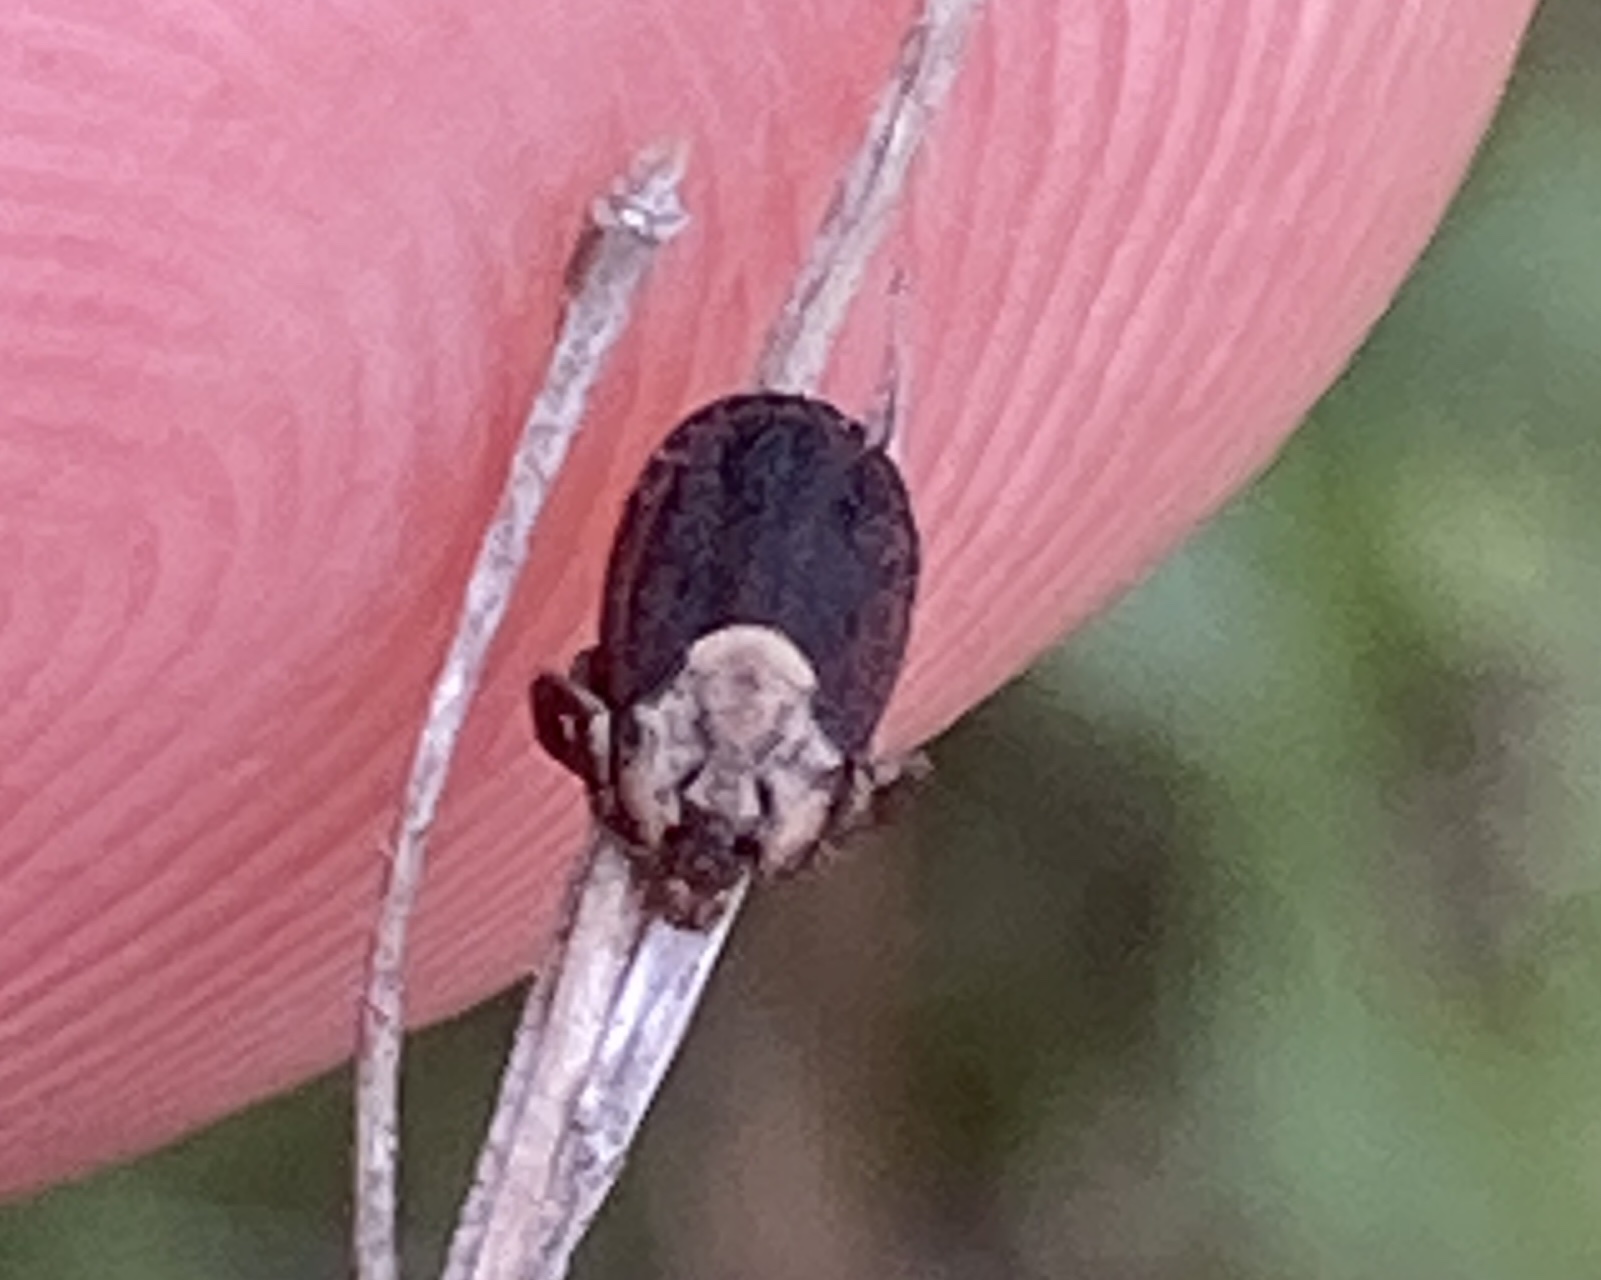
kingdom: Animalia
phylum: Arthropoda
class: Arachnida
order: Ixodida
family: Ixodidae
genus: Dermacentor
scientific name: Dermacentor occidentalis
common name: Net tick
